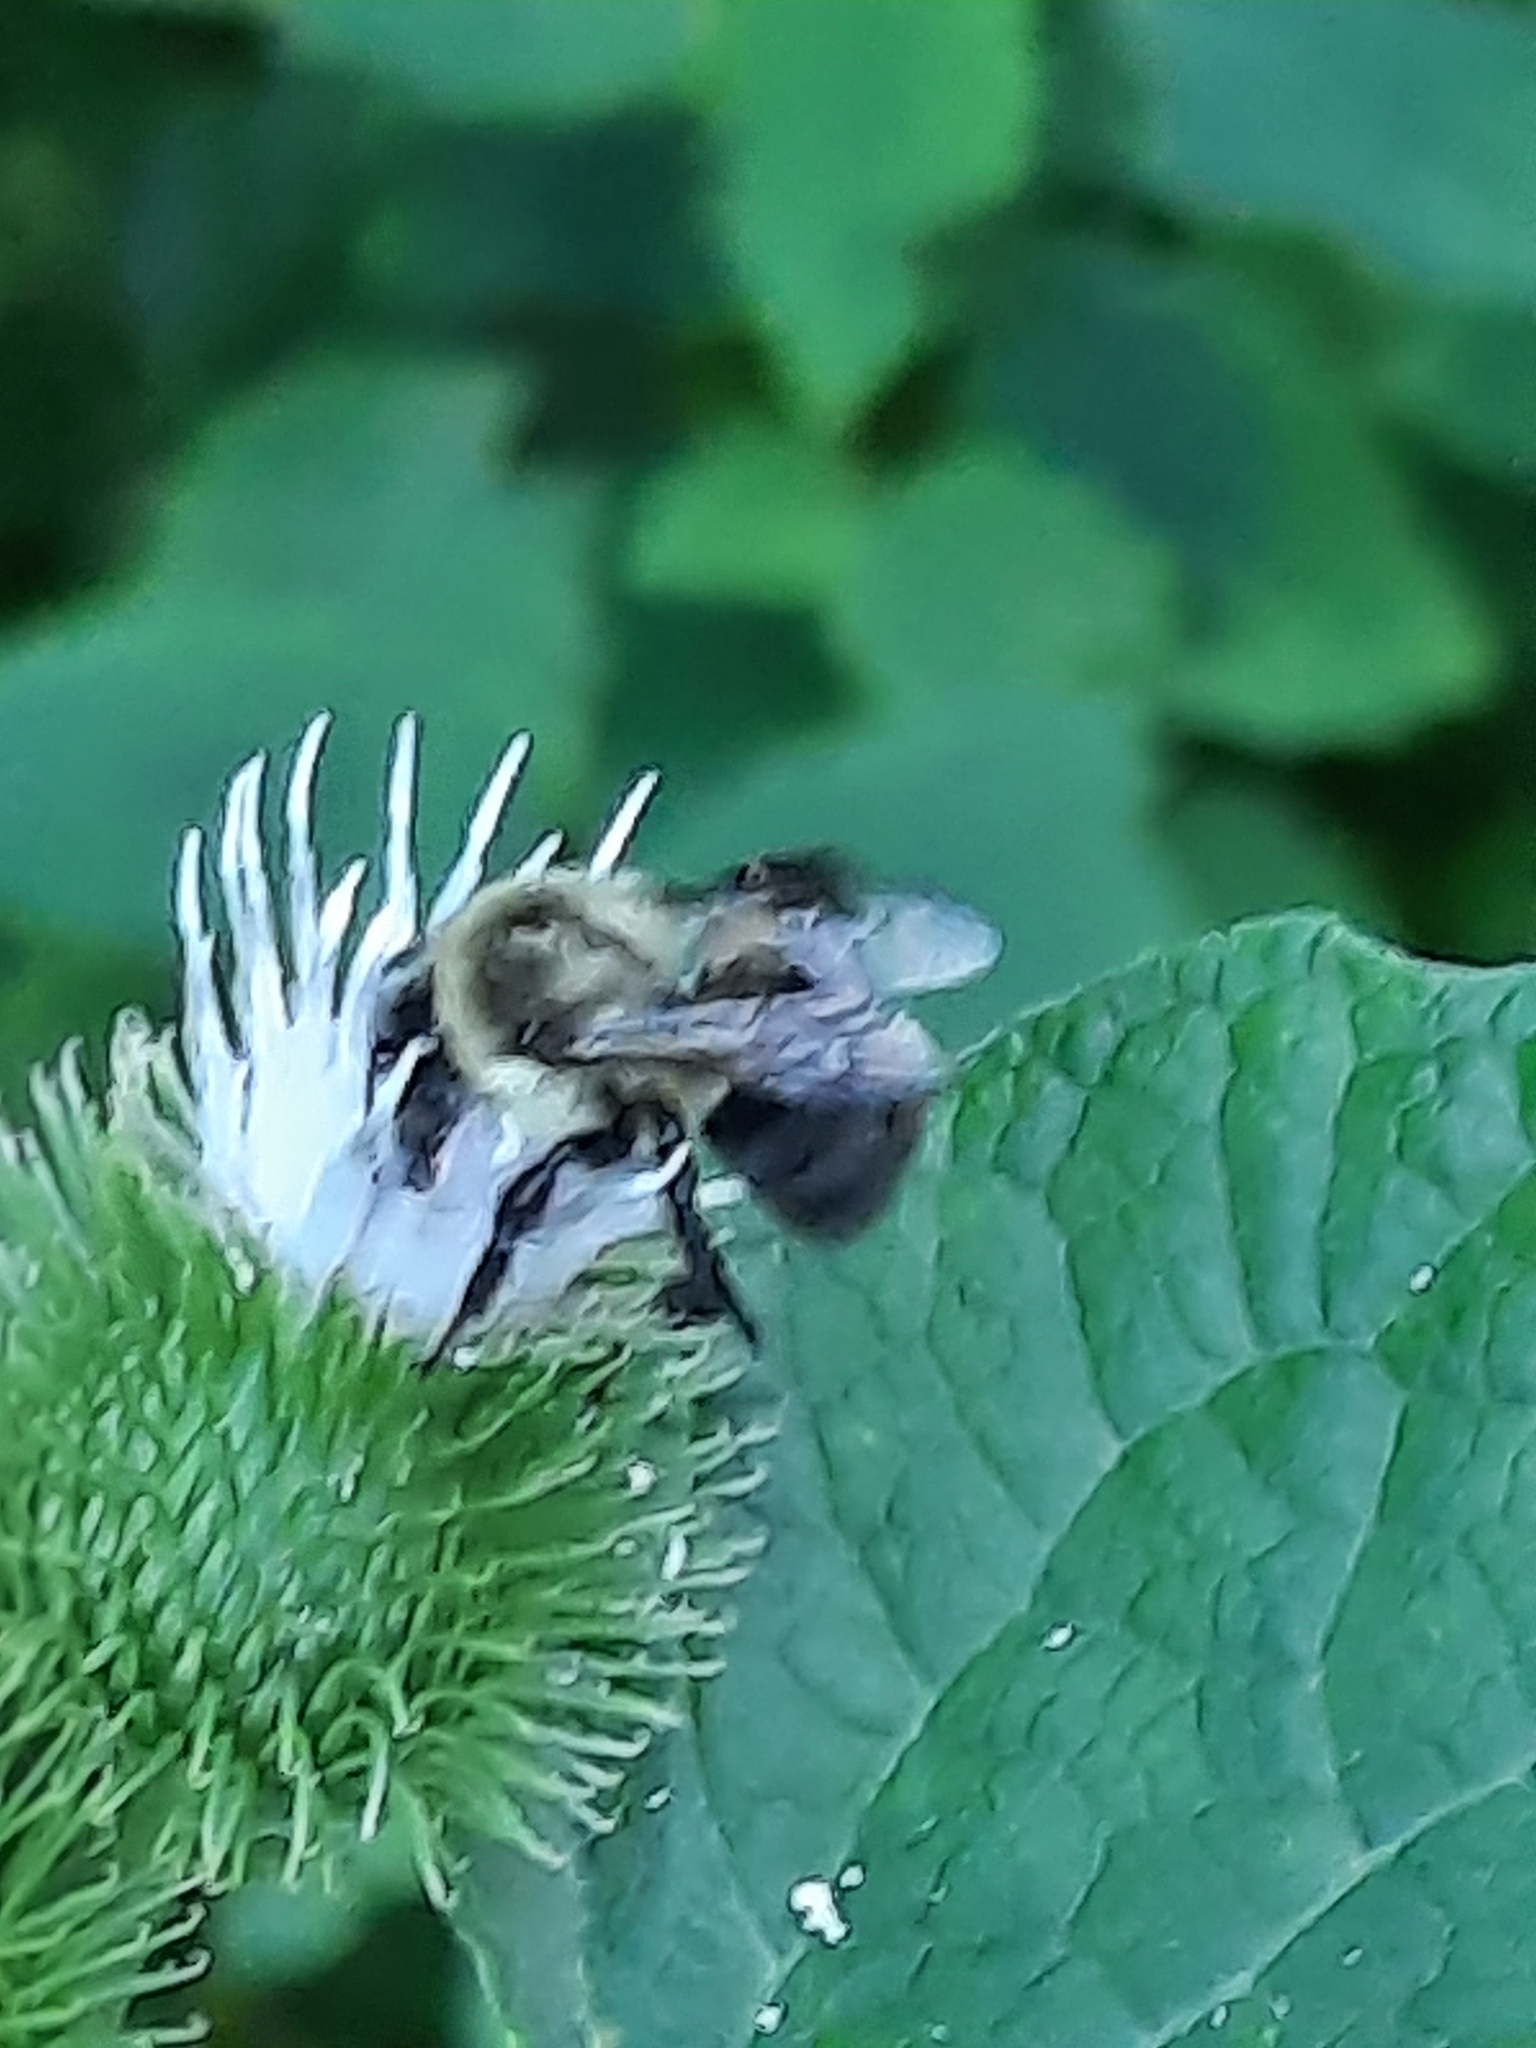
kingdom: Animalia
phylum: Arthropoda
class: Insecta
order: Hymenoptera
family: Apidae
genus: Bombus
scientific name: Bombus impatiens
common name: Common eastern bumble bee
